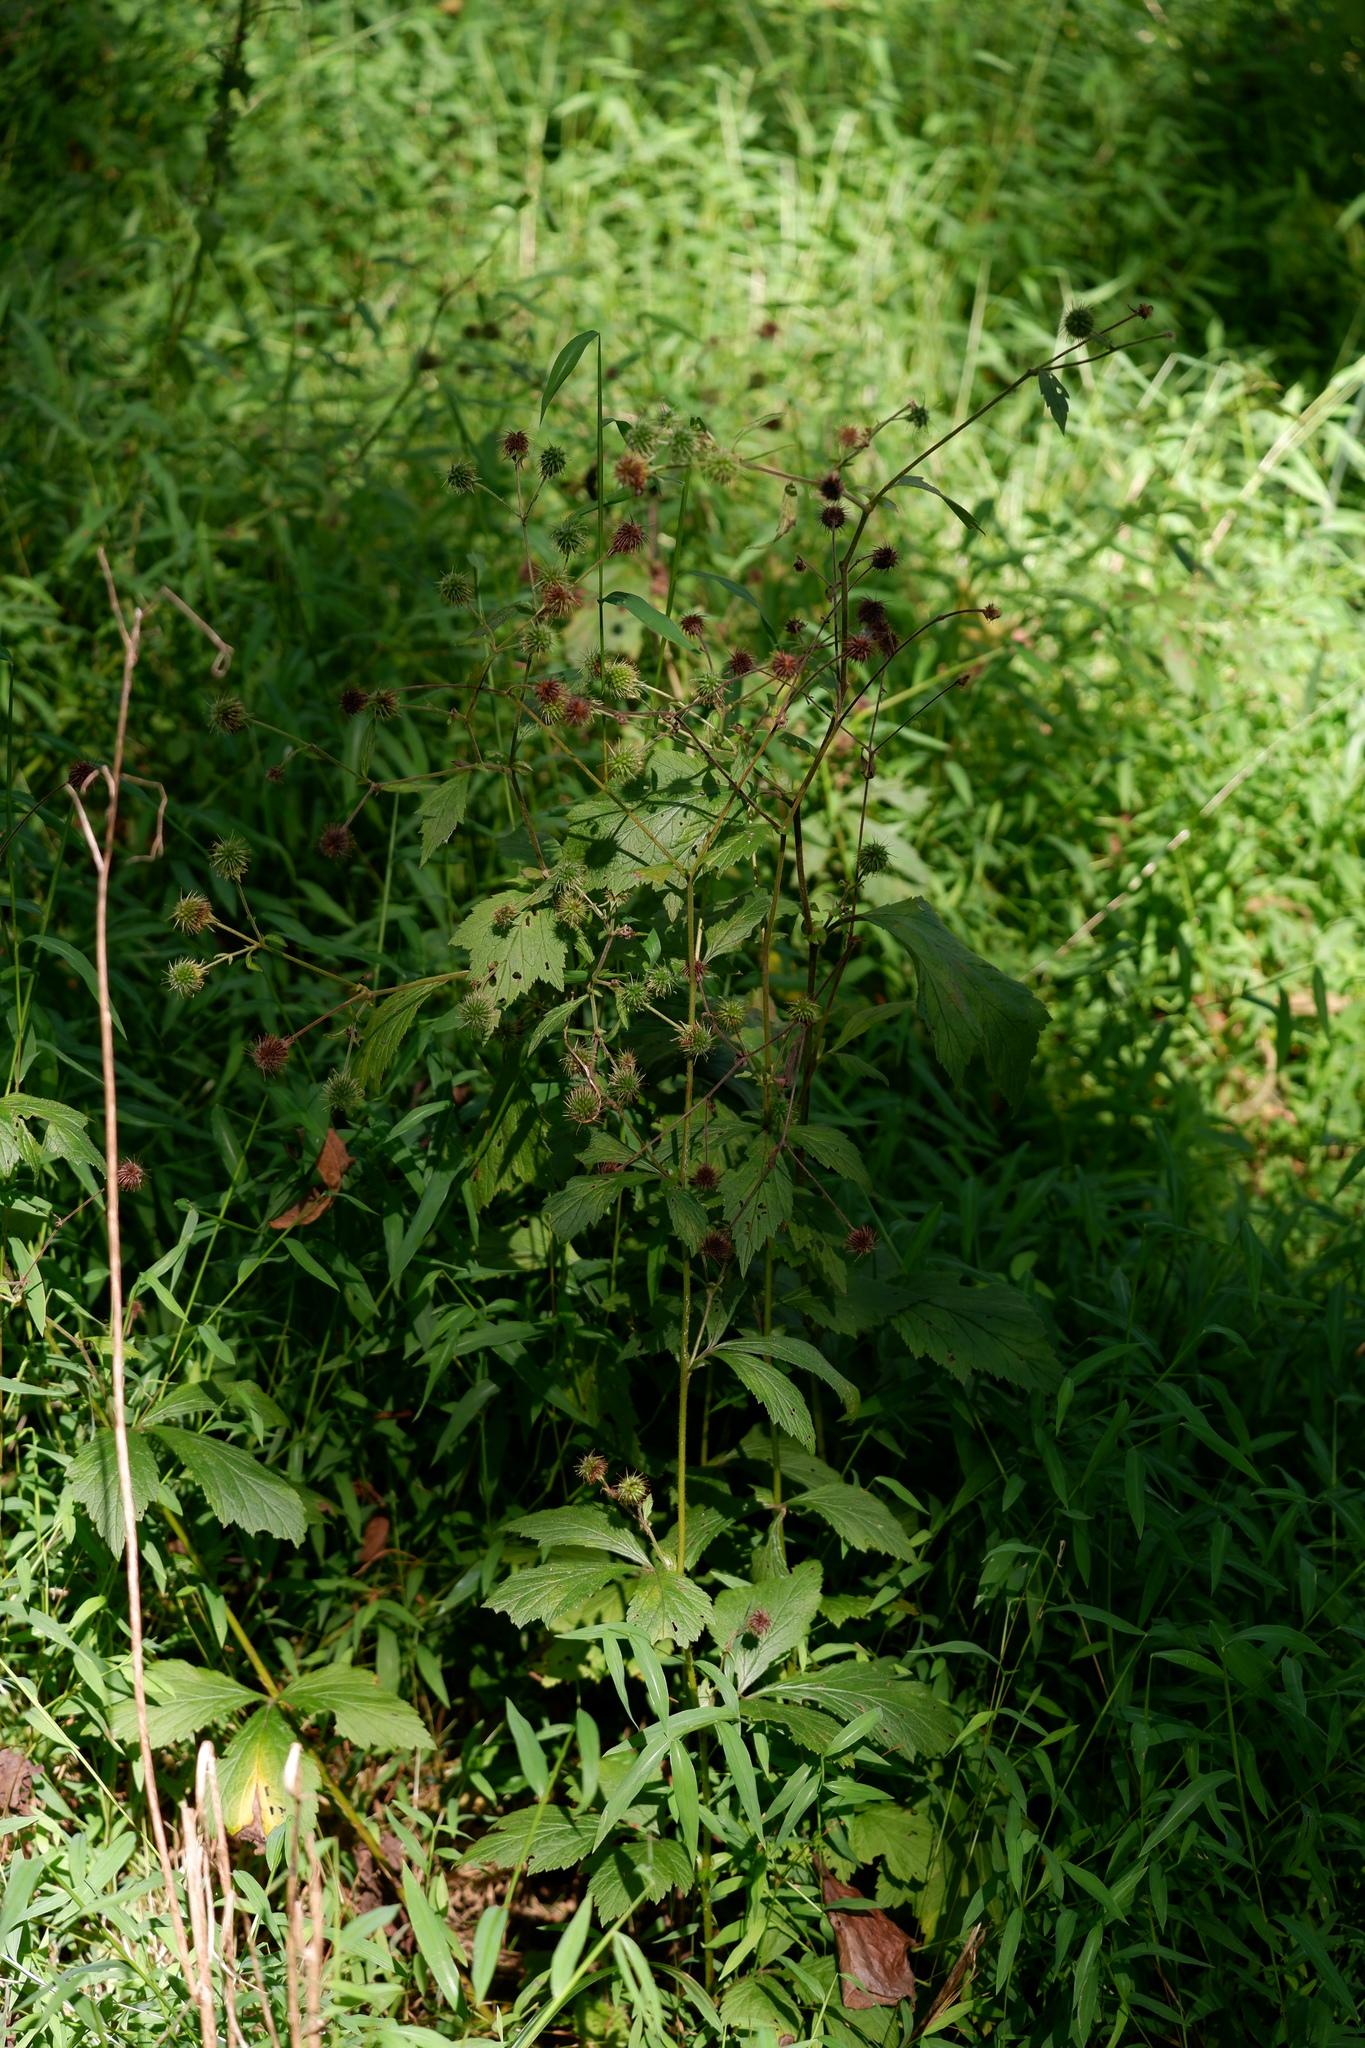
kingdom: Plantae
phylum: Tracheophyta
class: Magnoliopsida
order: Rosales
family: Rosaceae
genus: Geum
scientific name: Geum canadense
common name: White avens
